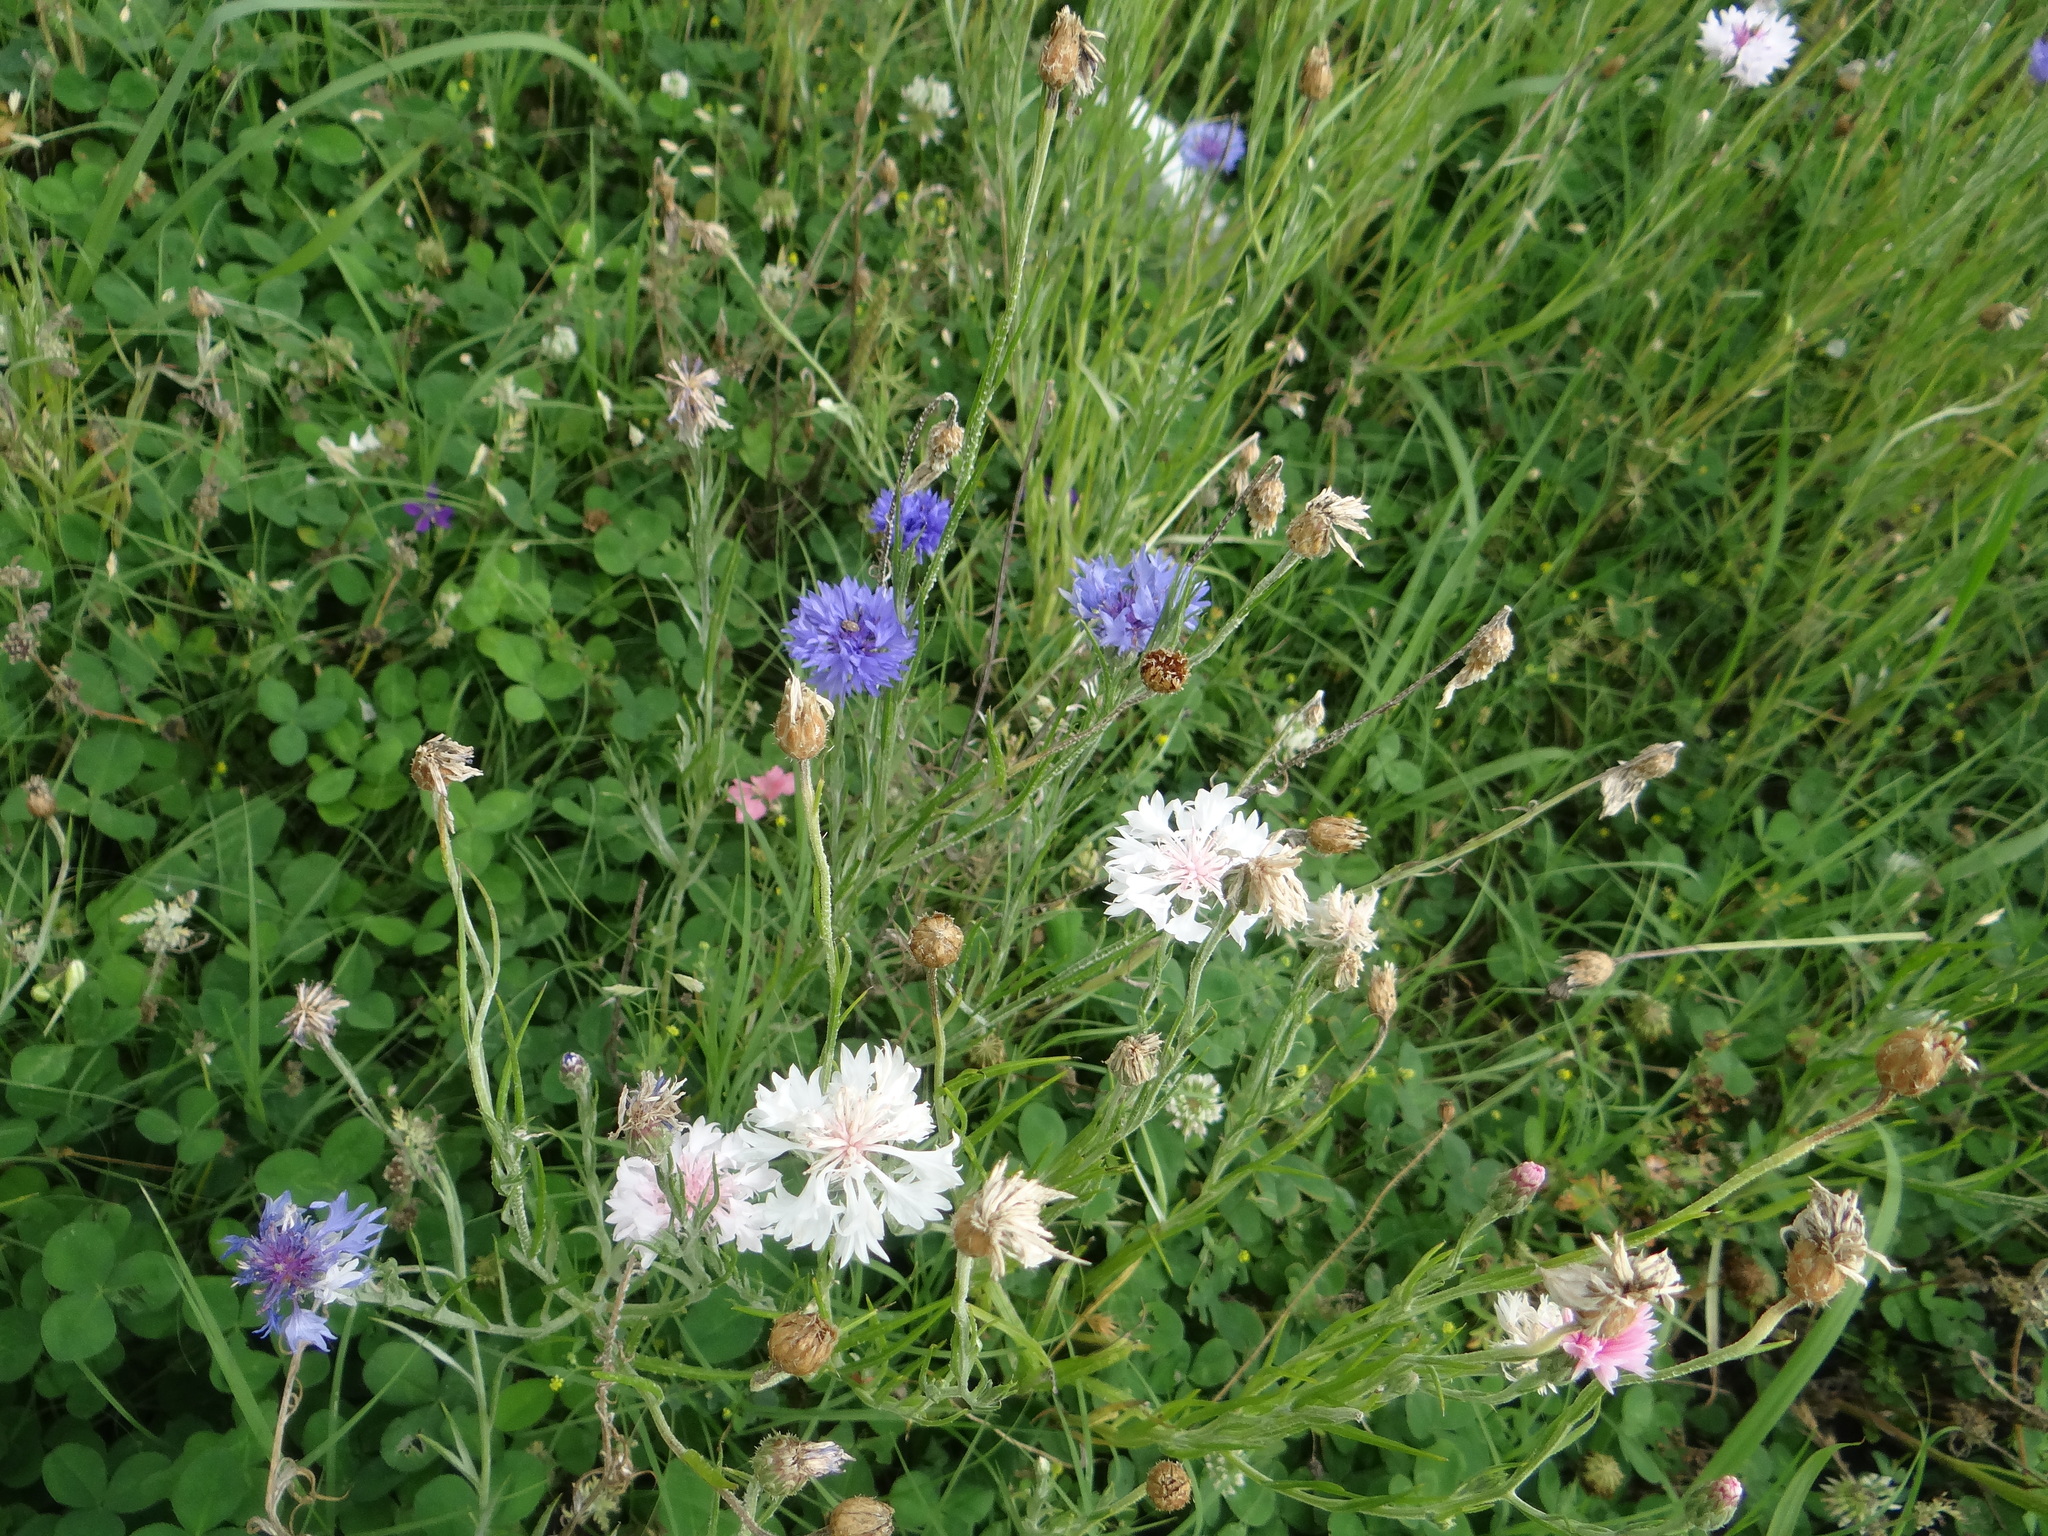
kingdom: Plantae
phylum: Tracheophyta
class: Magnoliopsida
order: Asterales
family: Asteraceae
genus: Centaurea
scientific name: Centaurea cyanus
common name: Cornflower
